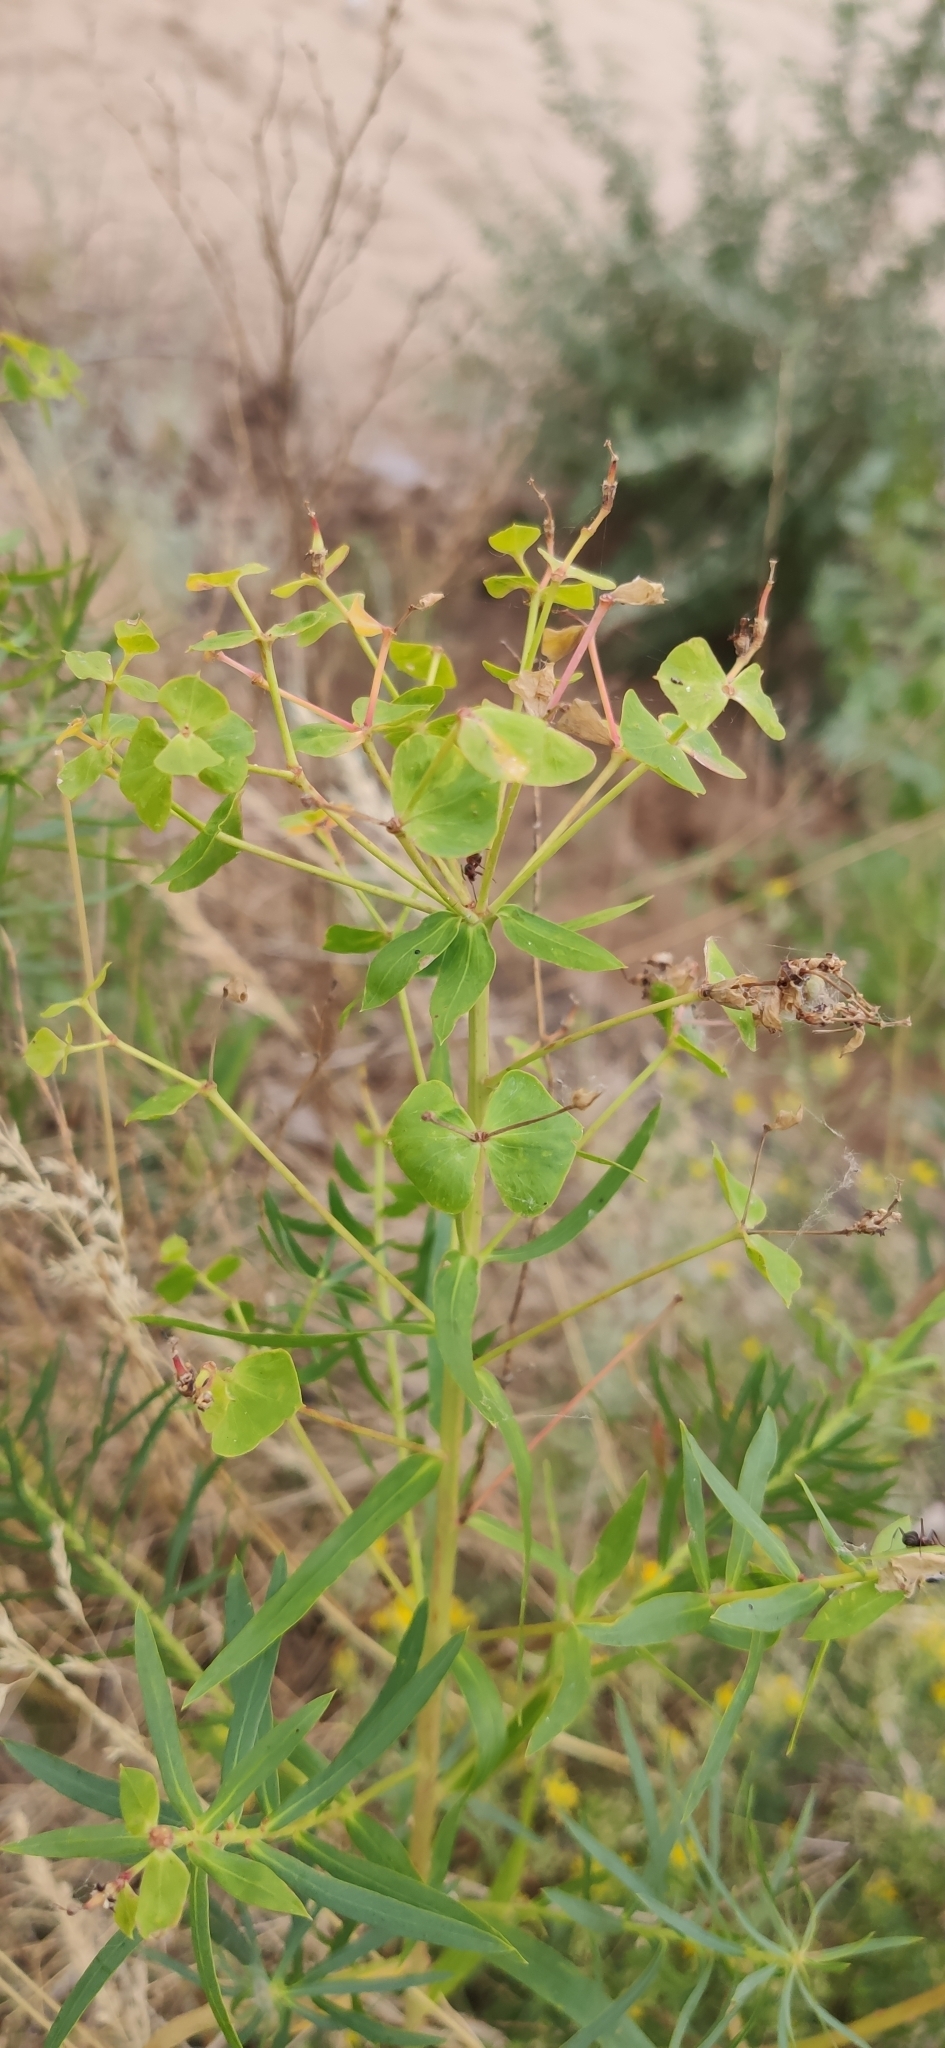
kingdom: Plantae
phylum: Tracheophyta
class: Magnoliopsida
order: Malpighiales
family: Euphorbiaceae
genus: Euphorbia
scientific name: Euphorbia virgata
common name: Leafy spurge
